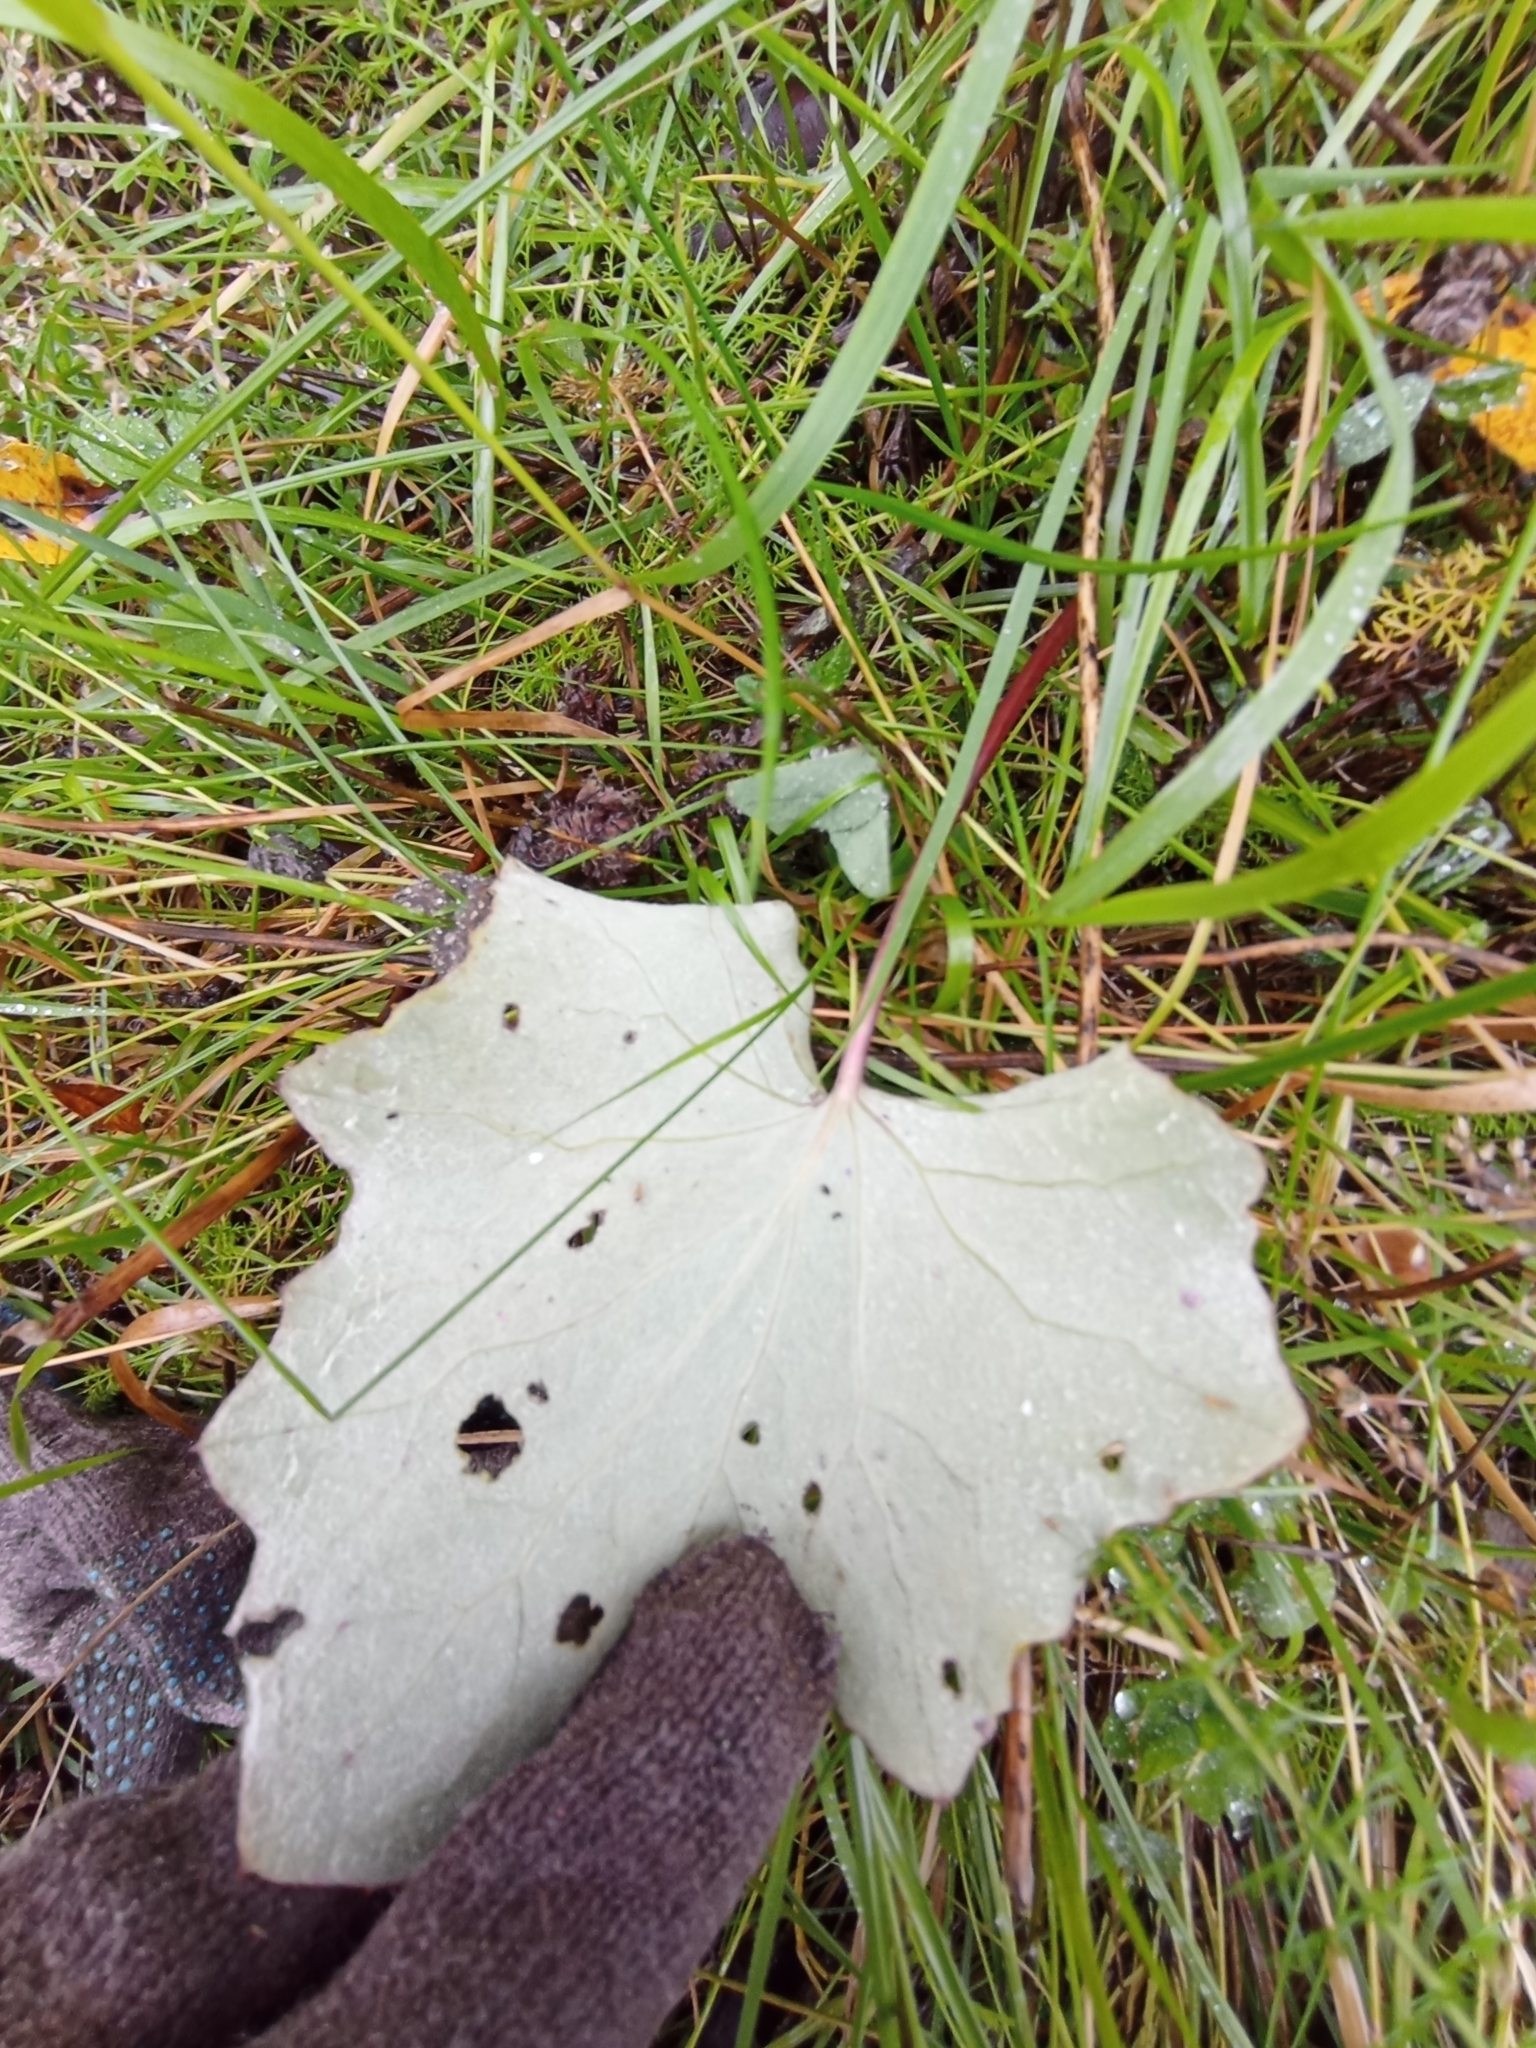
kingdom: Plantae
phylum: Tracheophyta
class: Magnoliopsida
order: Asterales
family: Asteraceae
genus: Tussilago
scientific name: Tussilago farfara
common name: Coltsfoot
